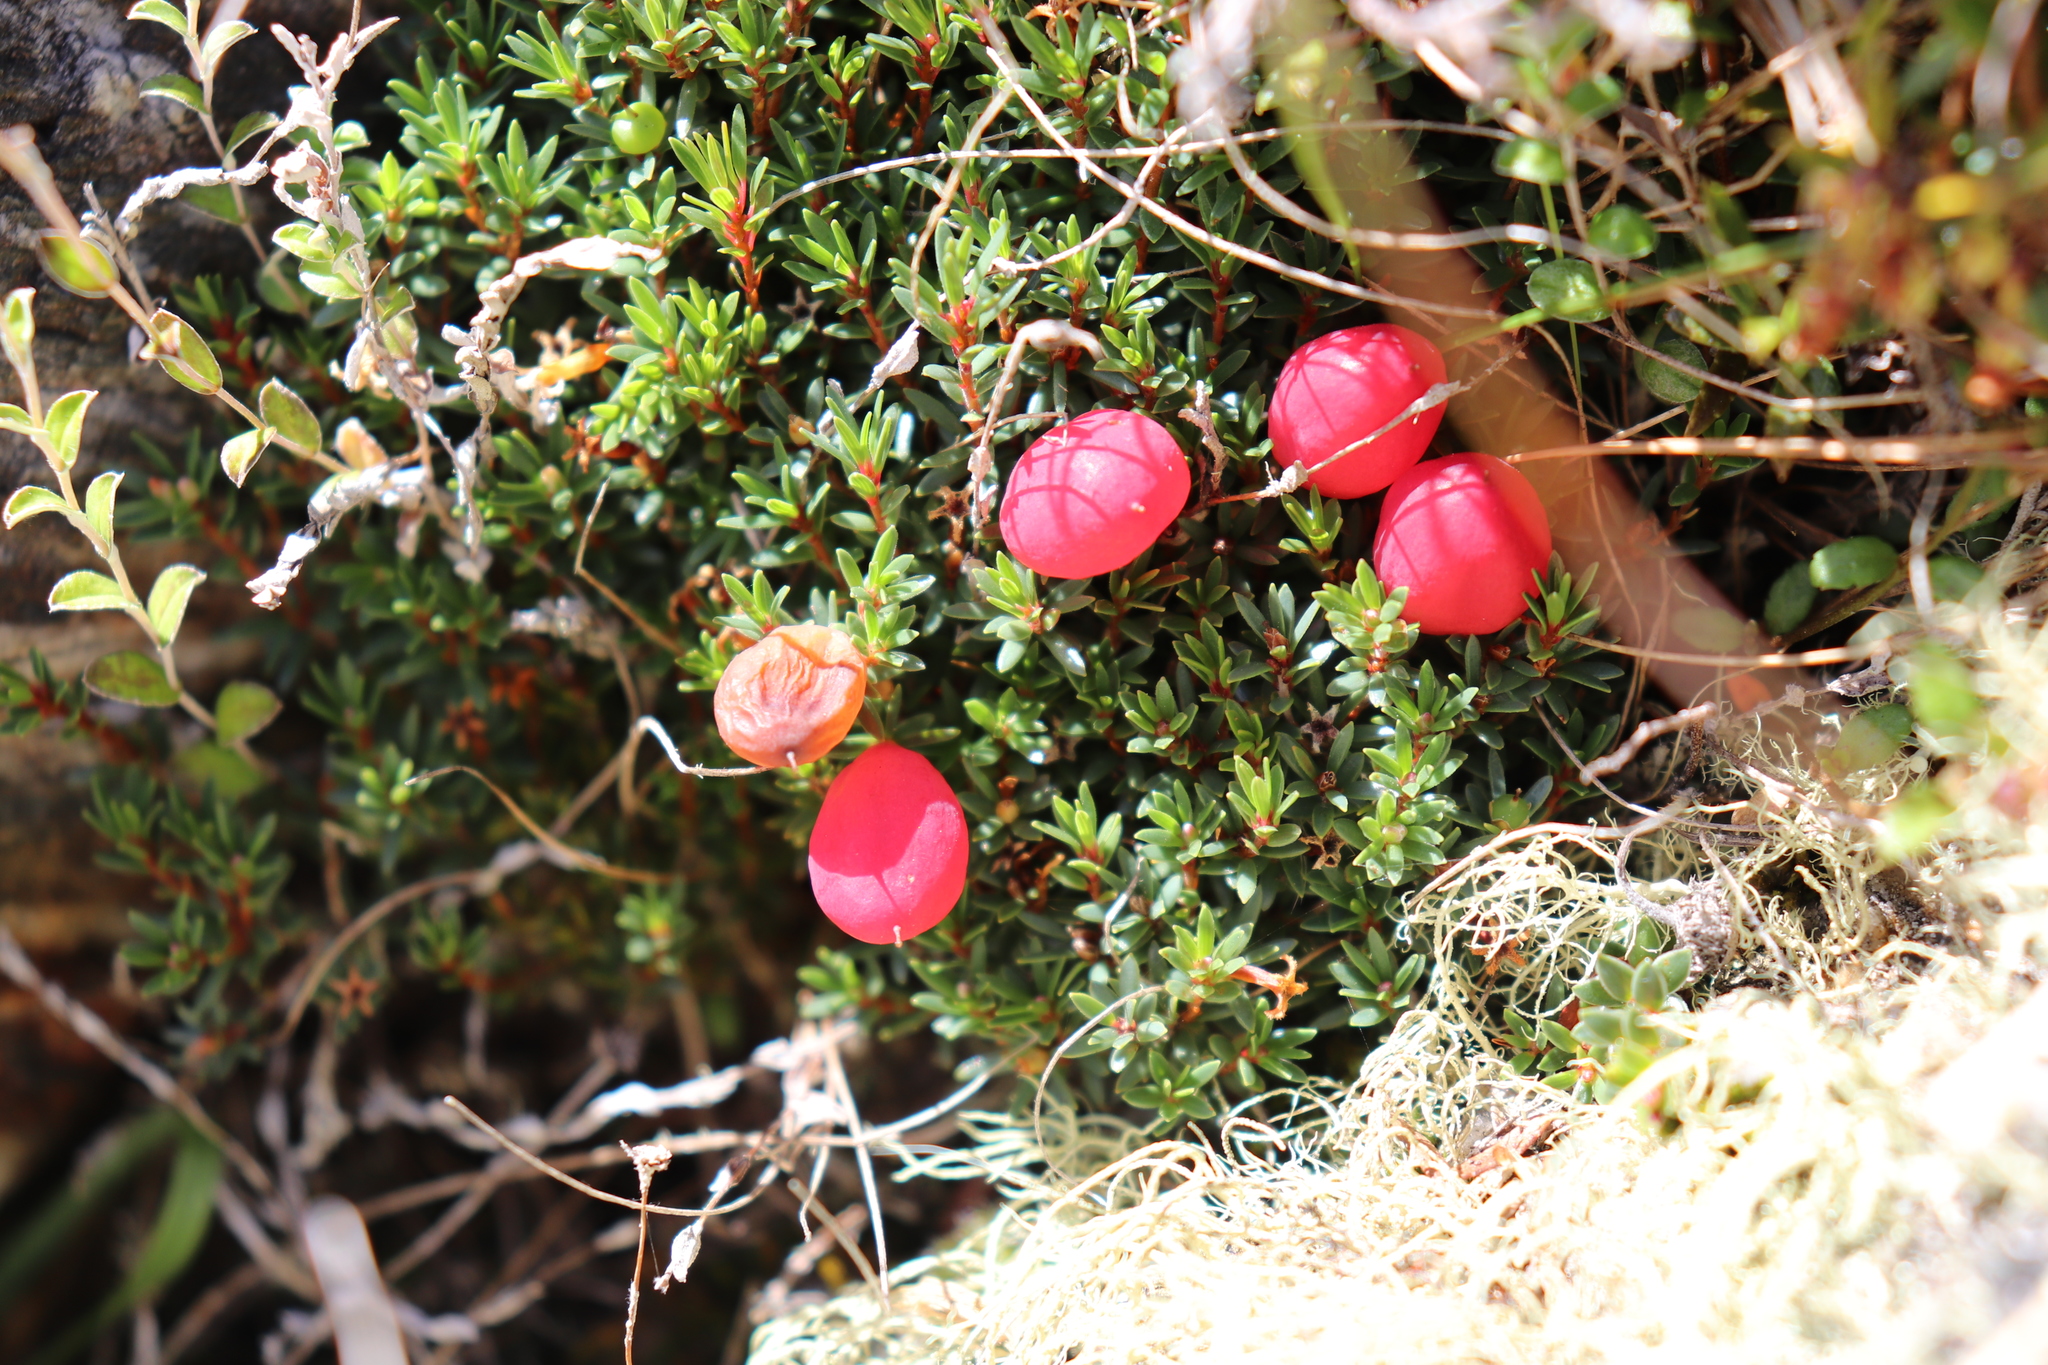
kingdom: Plantae
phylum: Tracheophyta
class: Magnoliopsida
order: Ericales
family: Ericaceae
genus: Pentachondra
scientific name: Pentachondra pumila
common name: Carpet-heath
